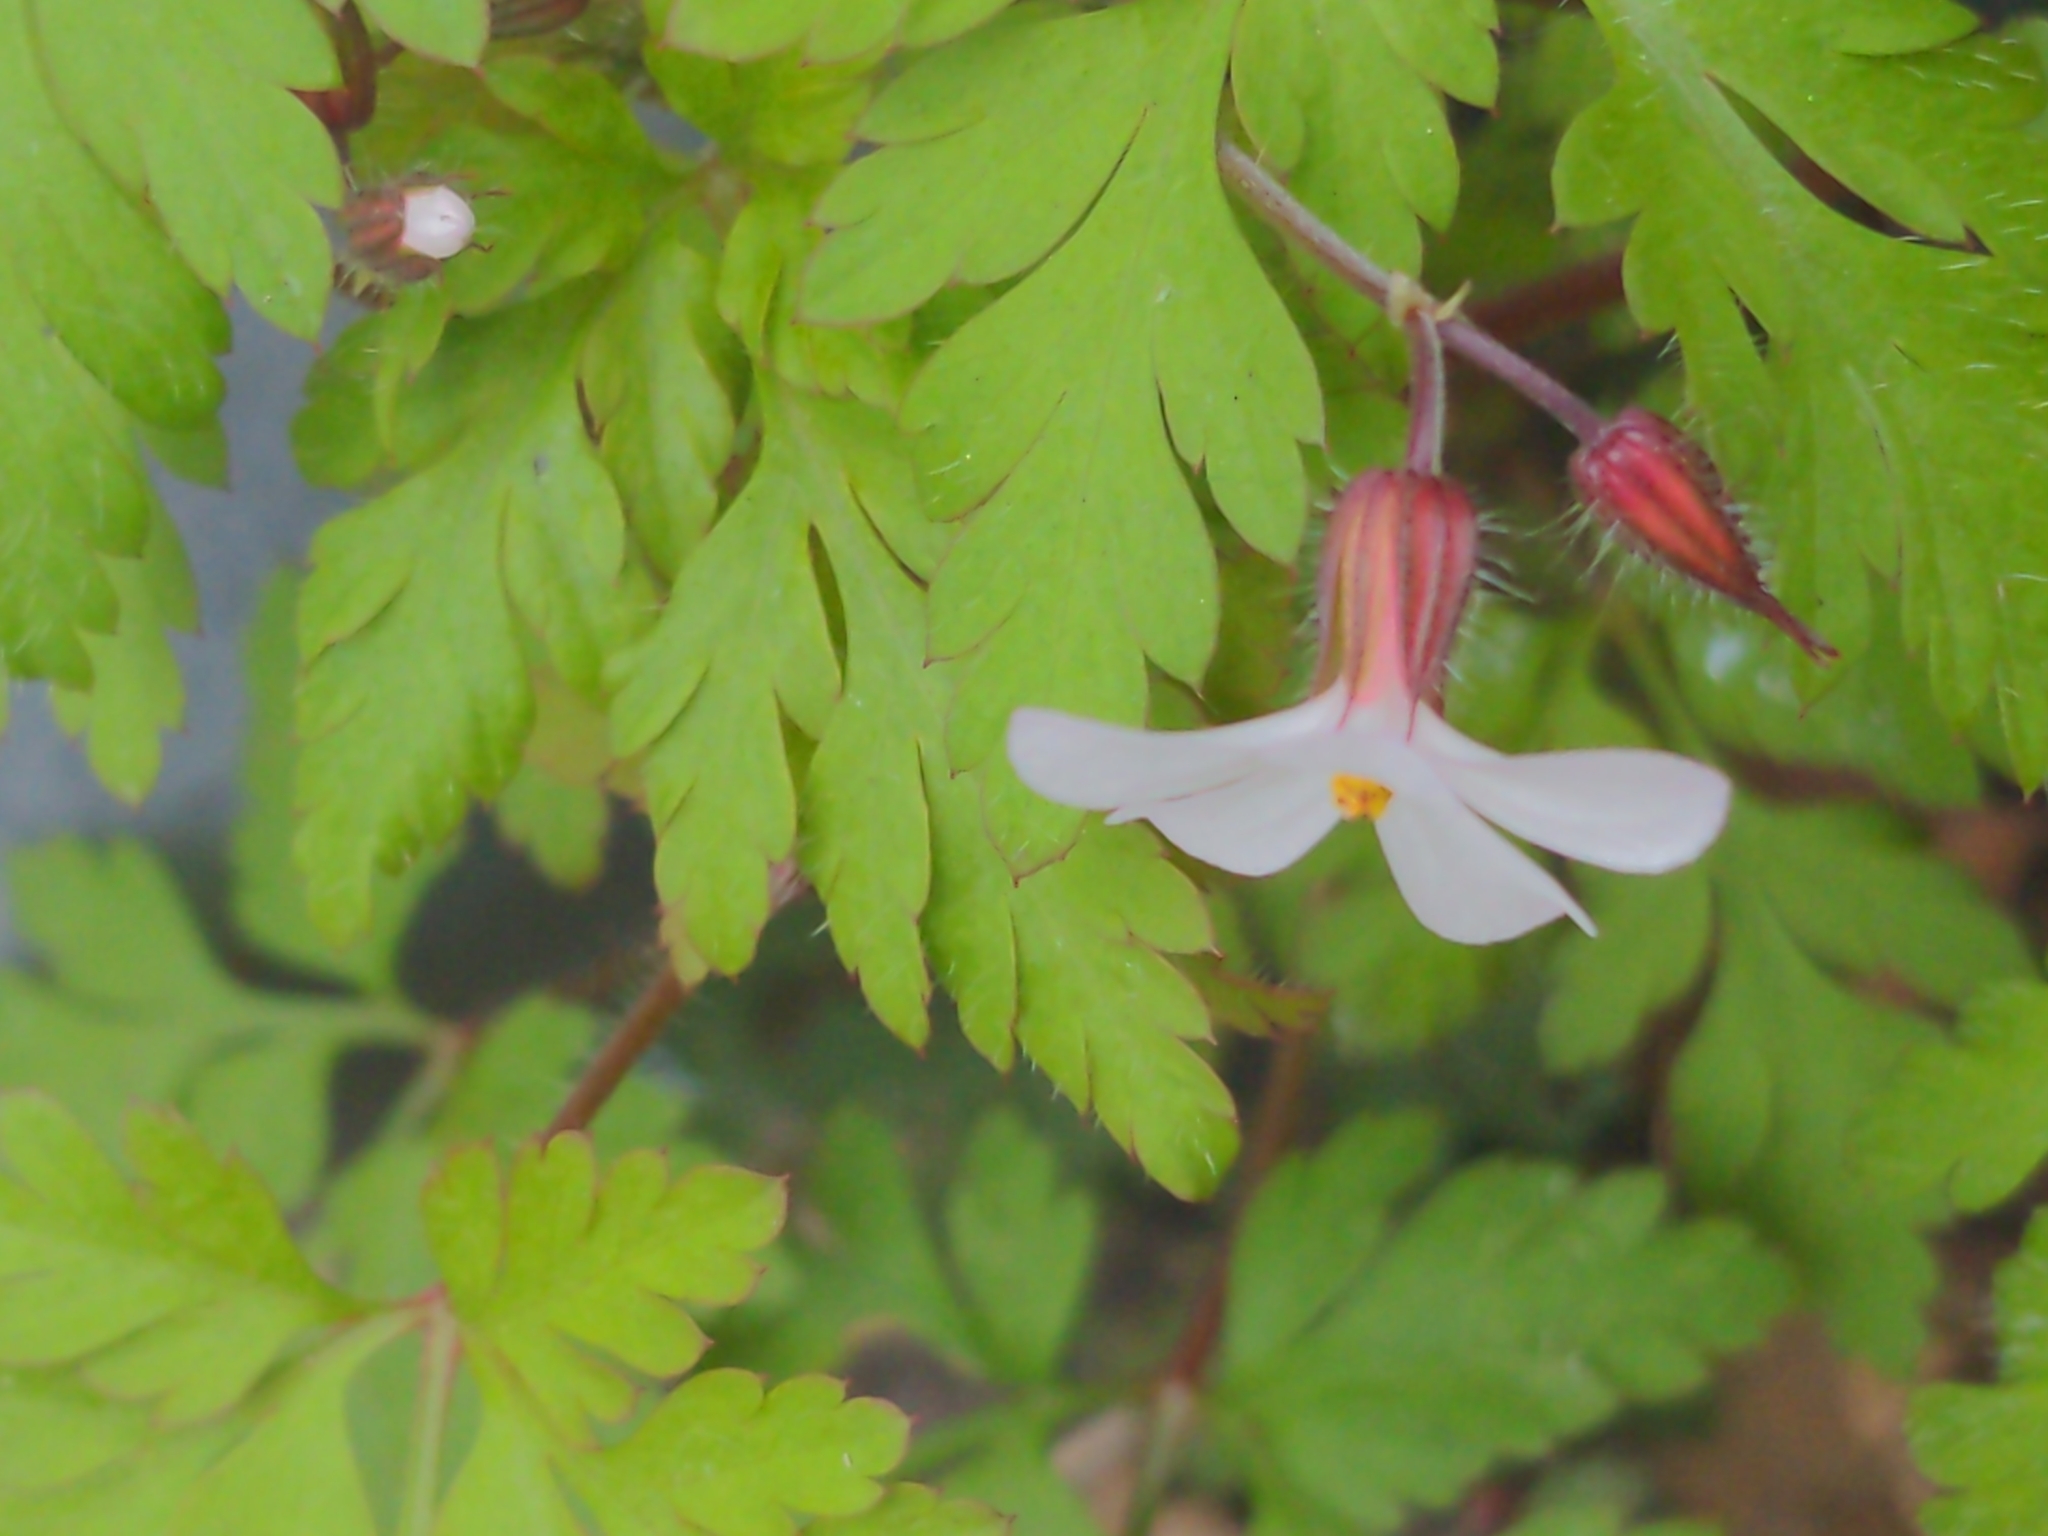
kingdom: Plantae
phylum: Tracheophyta
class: Magnoliopsida
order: Geraniales
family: Geraniaceae
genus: Geranium
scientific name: Geranium robertianum
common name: Herb-robert
